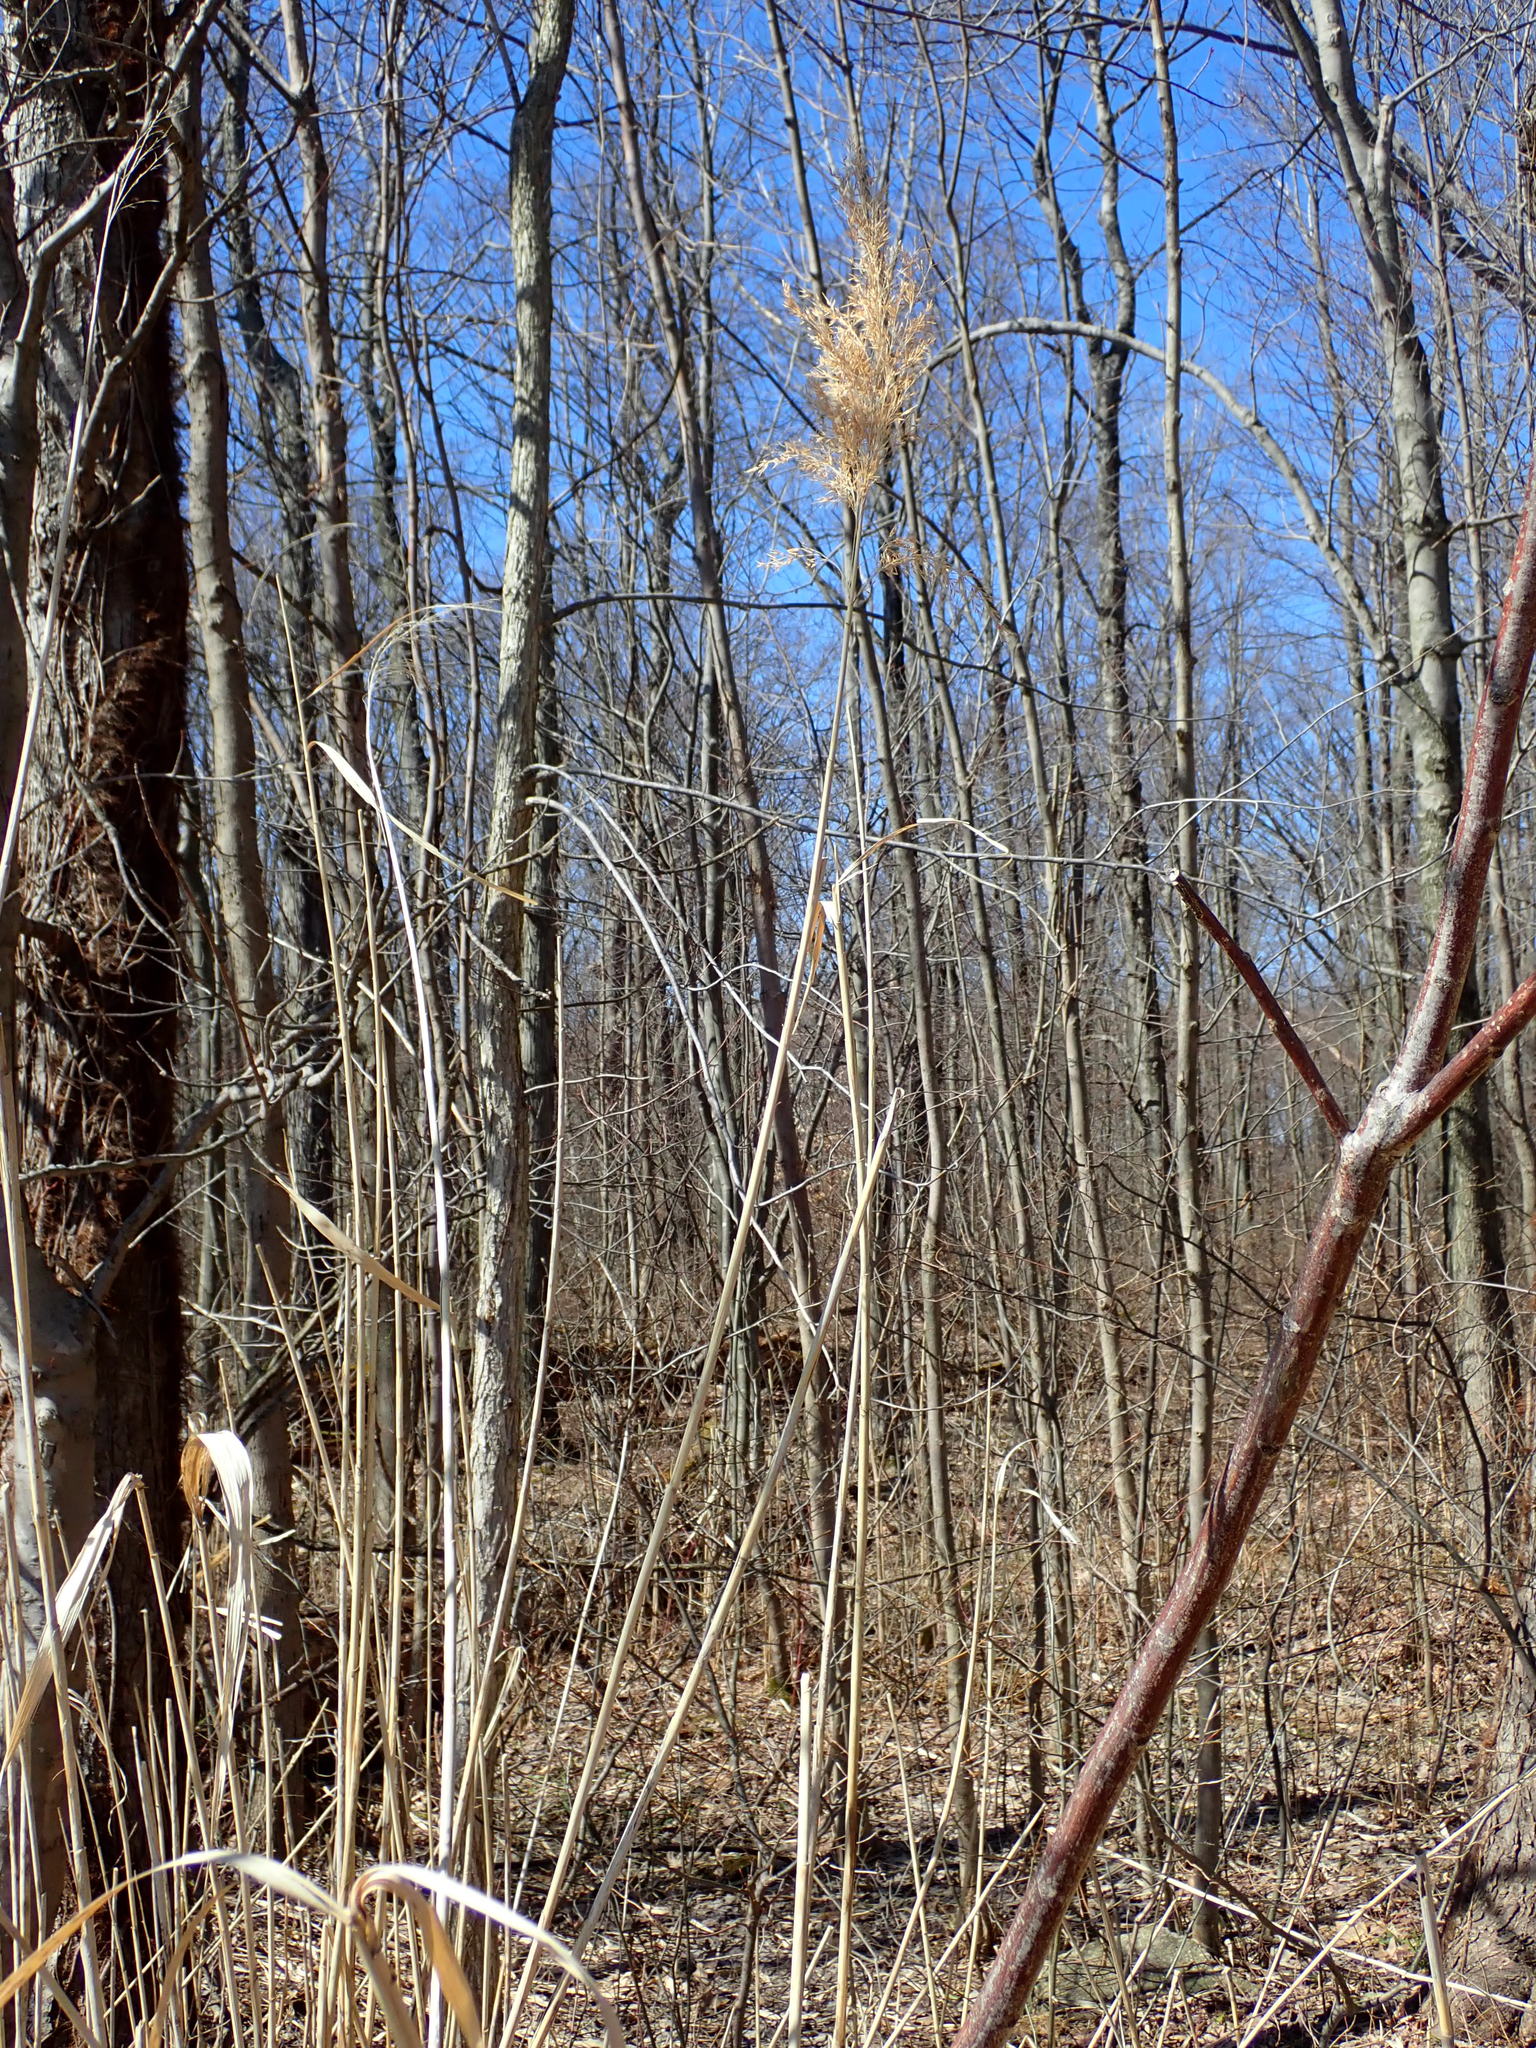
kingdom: Plantae
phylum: Tracheophyta
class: Liliopsida
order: Poales
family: Poaceae
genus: Phragmites
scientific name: Phragmites australis
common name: Common reed
